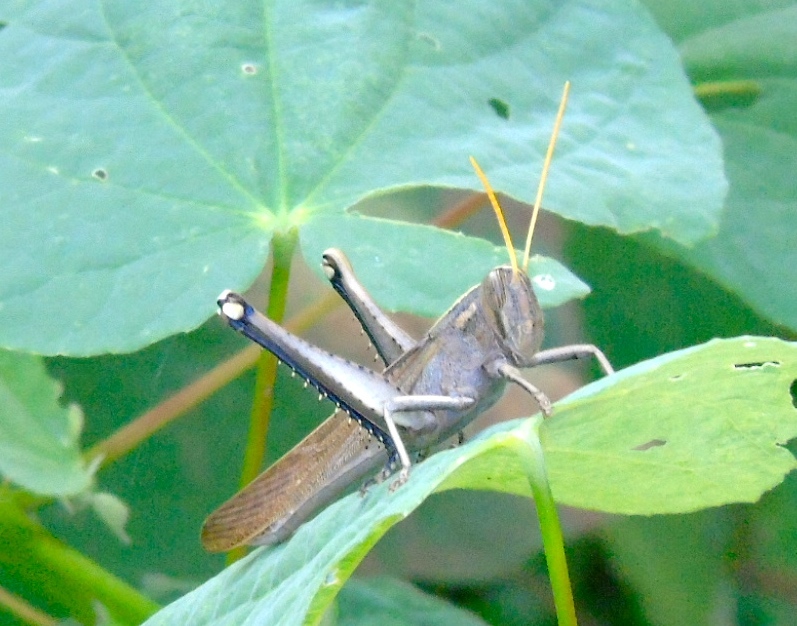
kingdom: Animalia
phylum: Arthropoda
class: Insecta
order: Orthoptera
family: Acrididae
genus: Schistocerca
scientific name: Schistocerca
